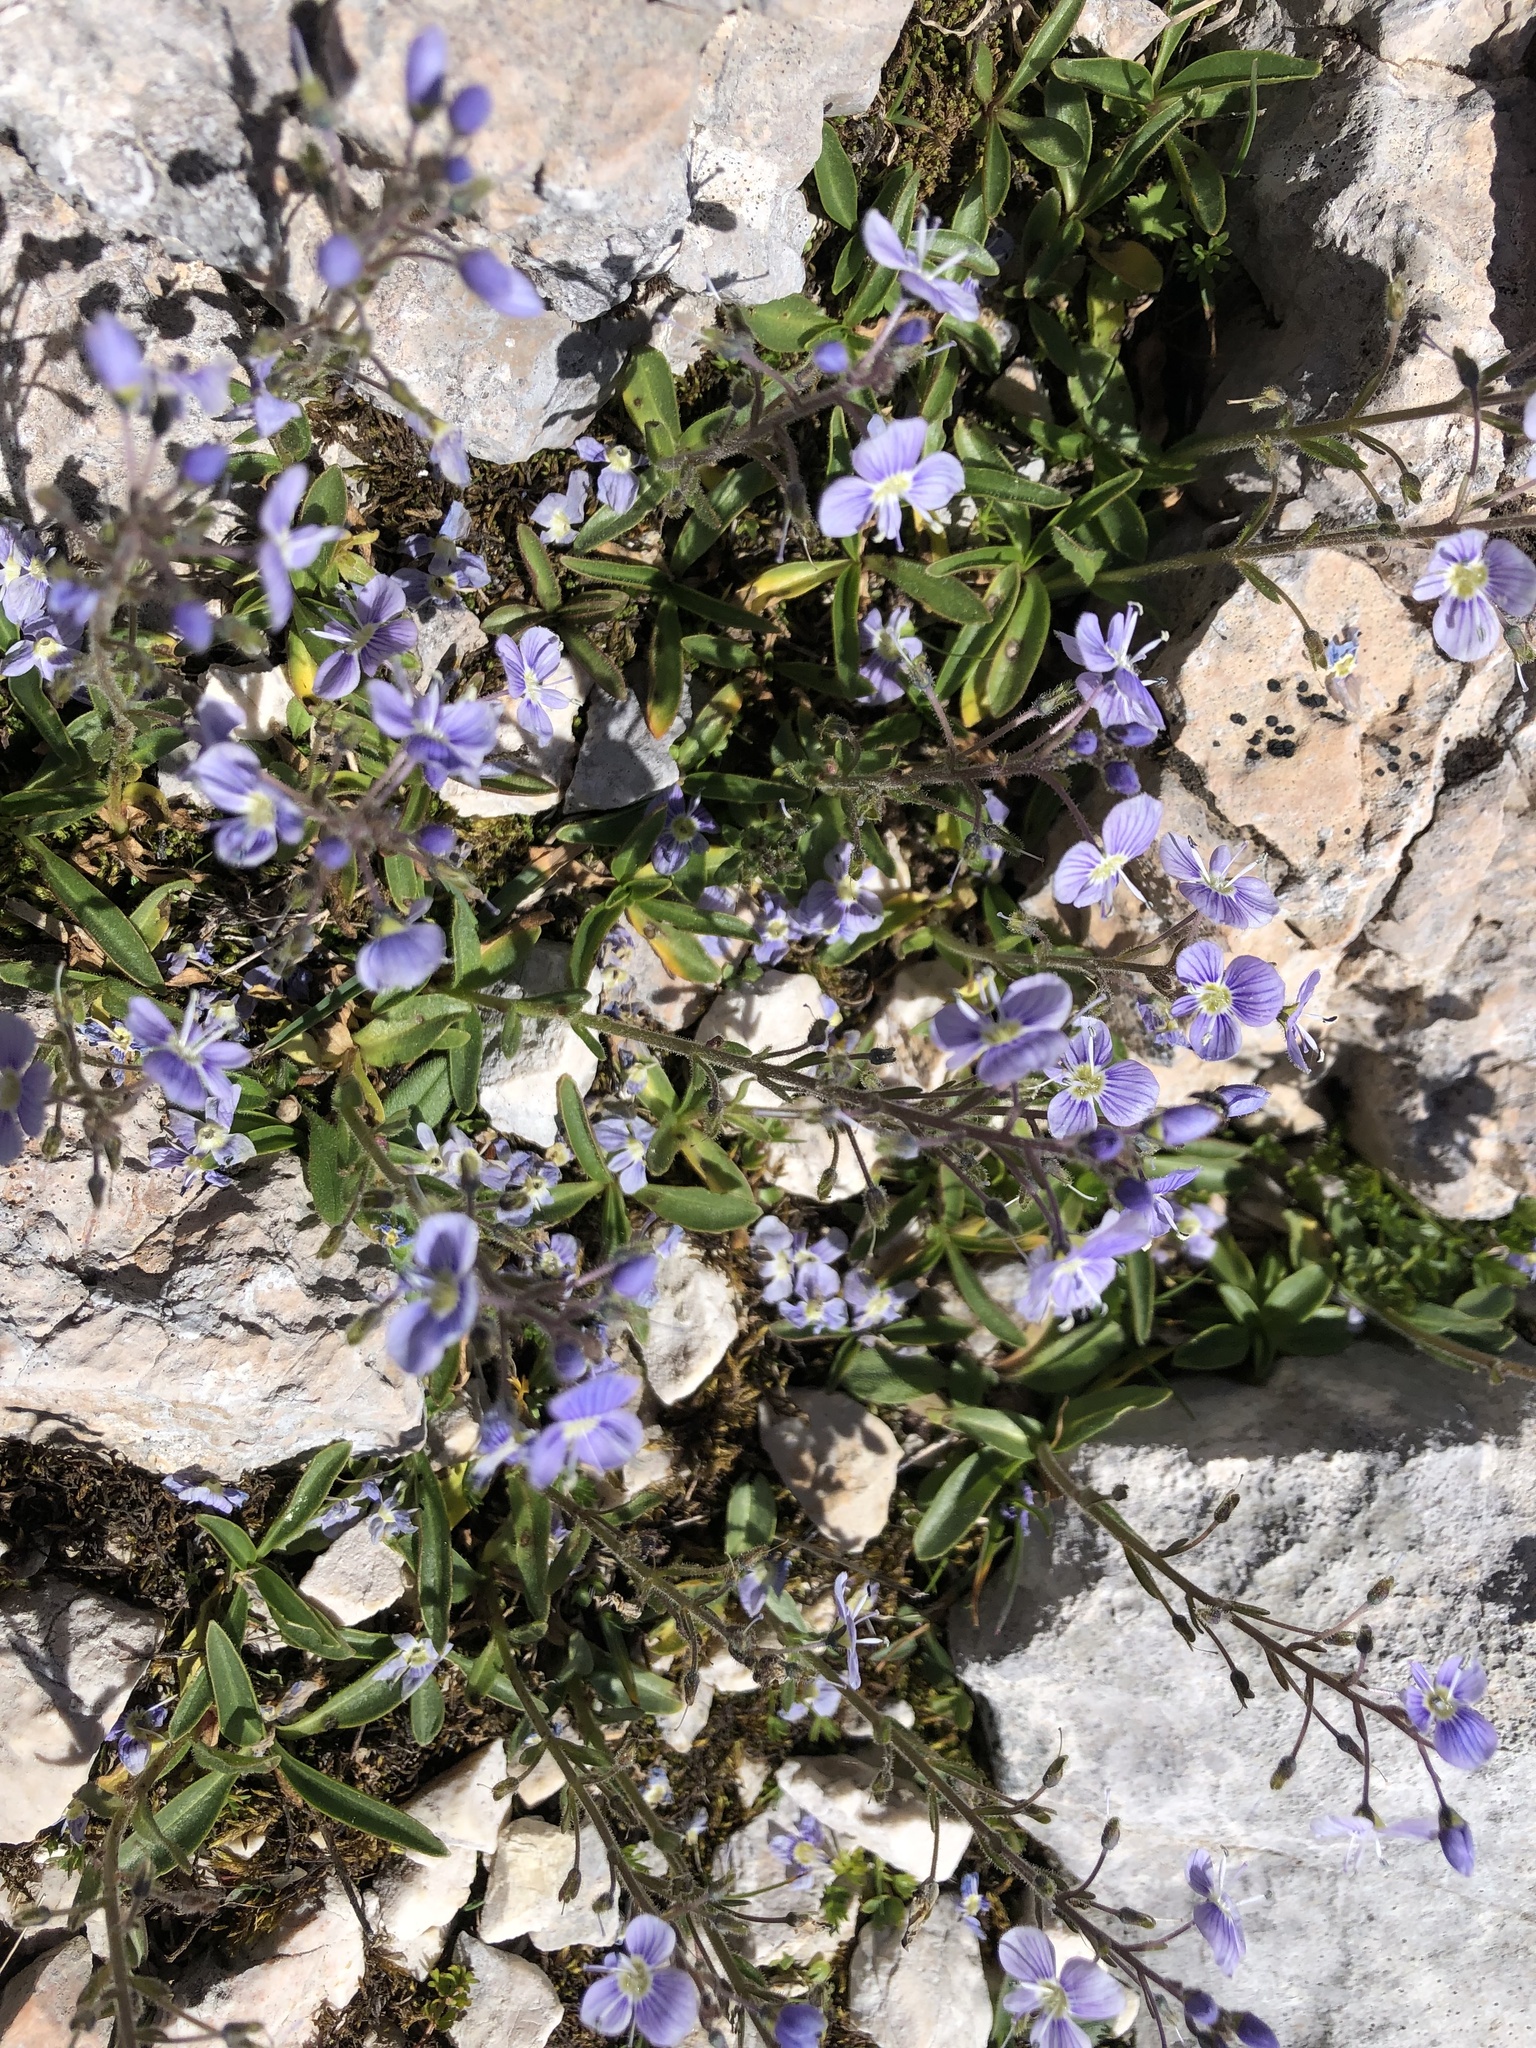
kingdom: Plantae
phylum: Tracheophyta
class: Magnoliopsida
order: Lamiales
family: Plantaginaceae
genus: Veronica
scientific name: Veronica gentianoides
